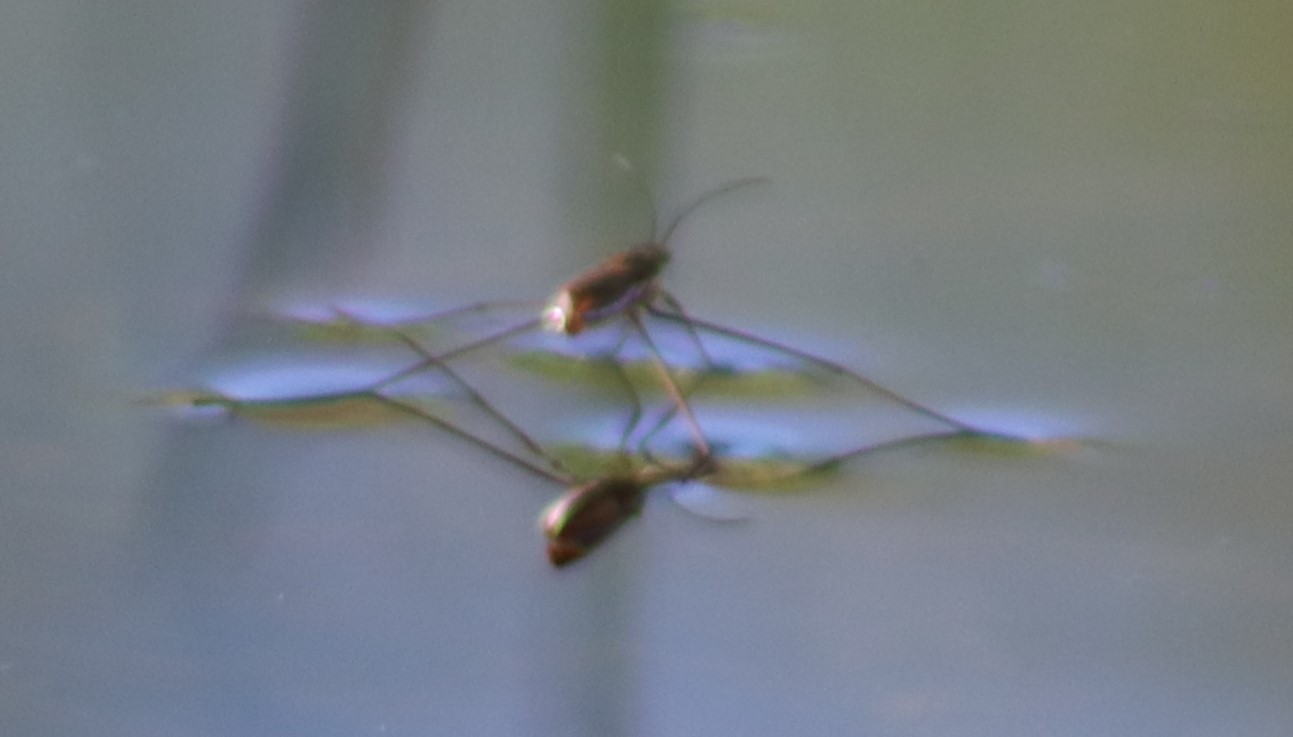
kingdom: Animalia
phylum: Arthropoda
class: Insecta
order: Hemiptera
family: Gerridae
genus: Limnoporus
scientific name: Limnoporus dissortis
